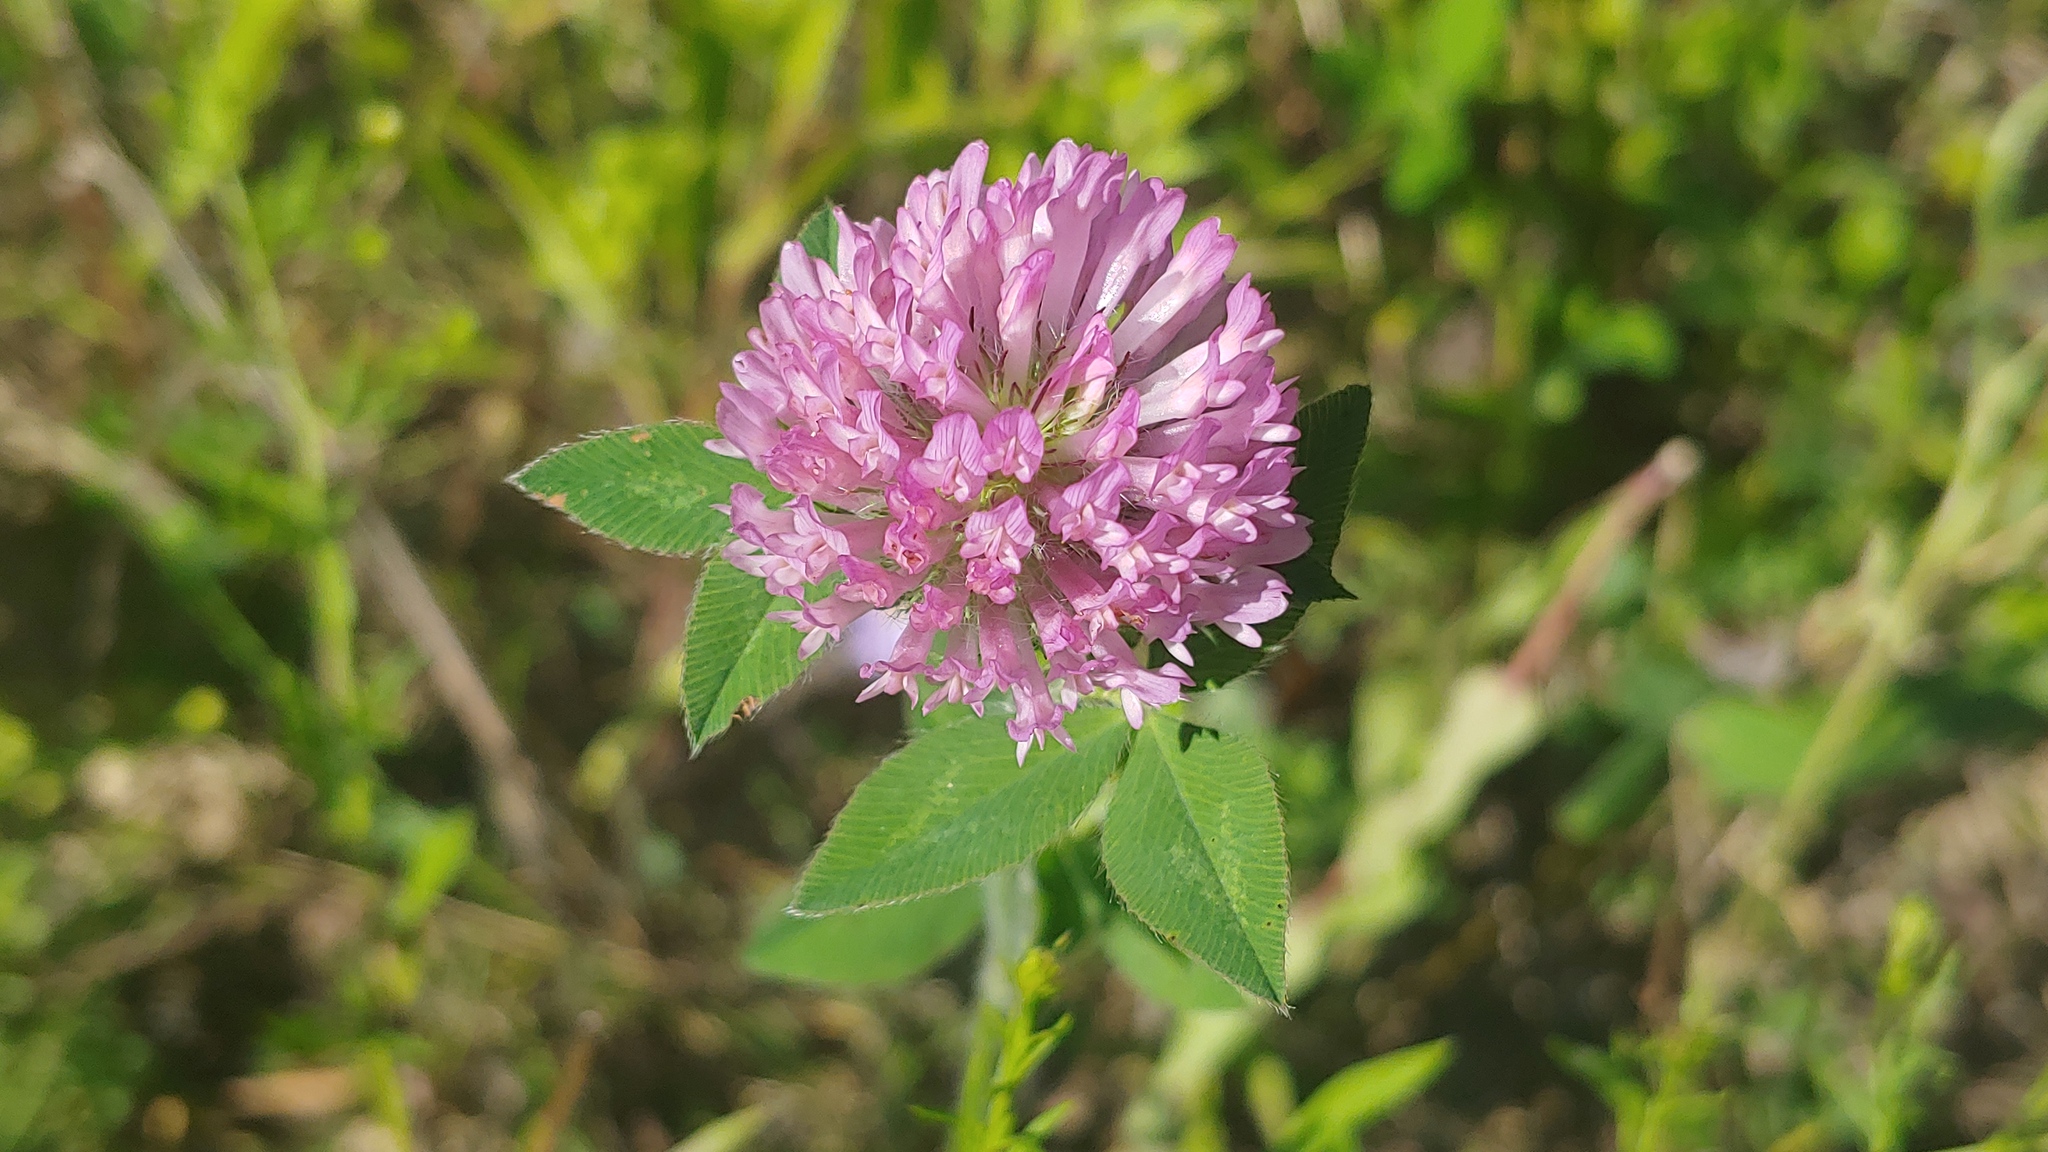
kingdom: Plantae
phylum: Tracheophyta
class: Magnoliopsida
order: Fabales
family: Fabaceae
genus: Trifolium
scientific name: Trifolium pratense
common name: Red clover
